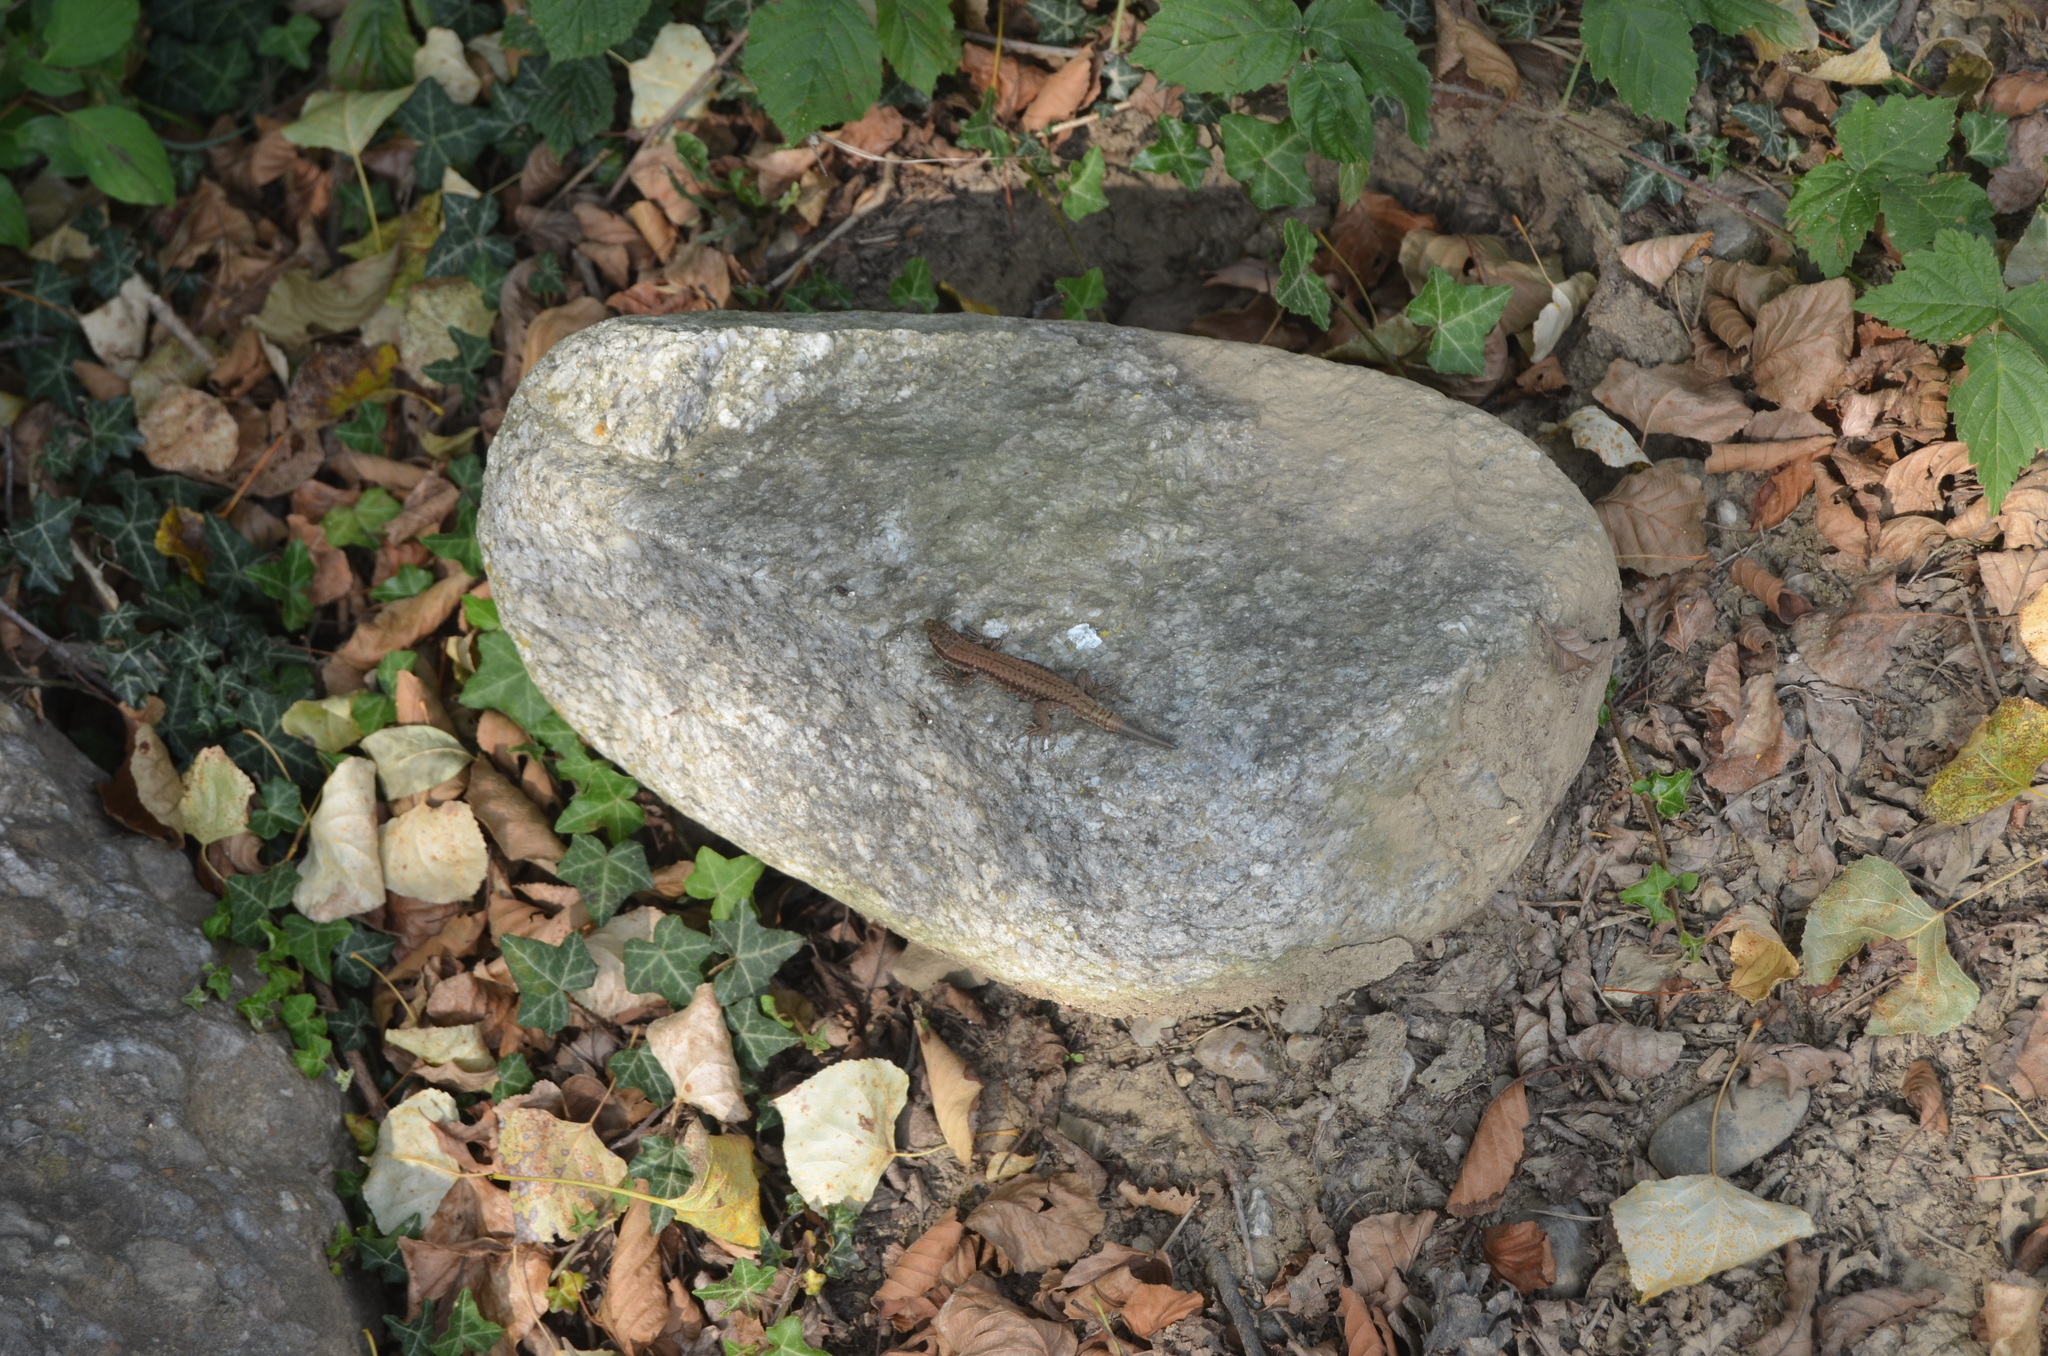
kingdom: Animalia
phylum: Chordata
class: Squamata
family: Lacertidae
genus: Podarcis
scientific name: Podarcis muralis
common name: Common wall lizard
